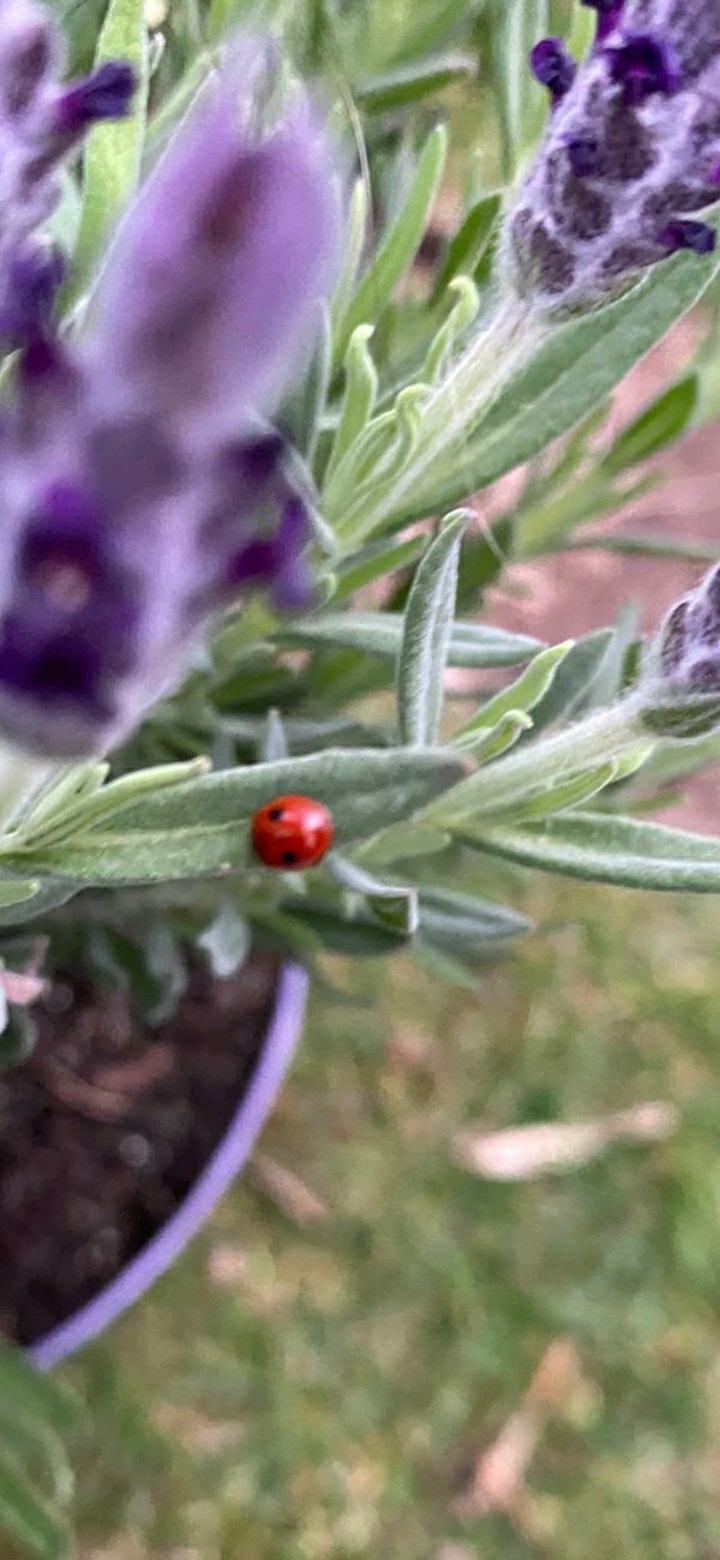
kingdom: Animalia
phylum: Arthropoda
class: Insecta
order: Coleoptera
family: Coccinellidae
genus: Adalia
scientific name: Adalia bipunctata
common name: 2-spot ladybird
